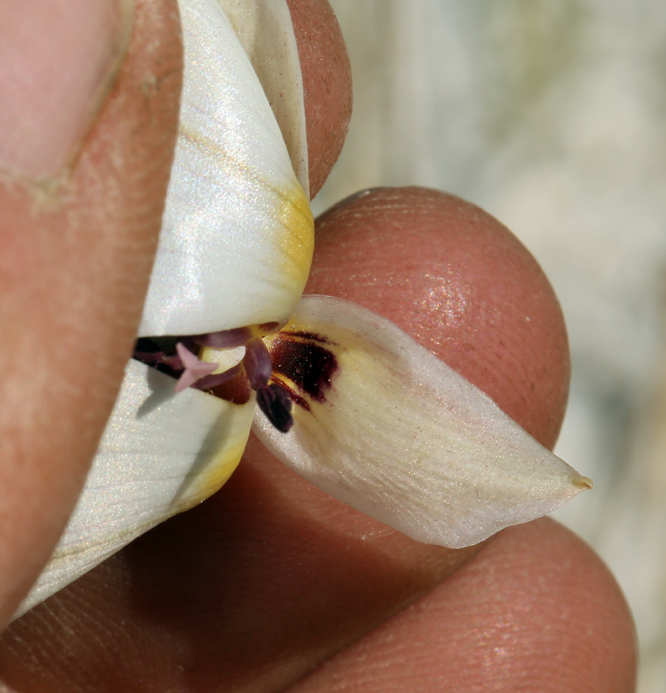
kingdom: Plantae
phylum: Tracheophyta
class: Liliopsida
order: Liliales
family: Liliaceae
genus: Calochortus
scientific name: Calochortus excavatus
